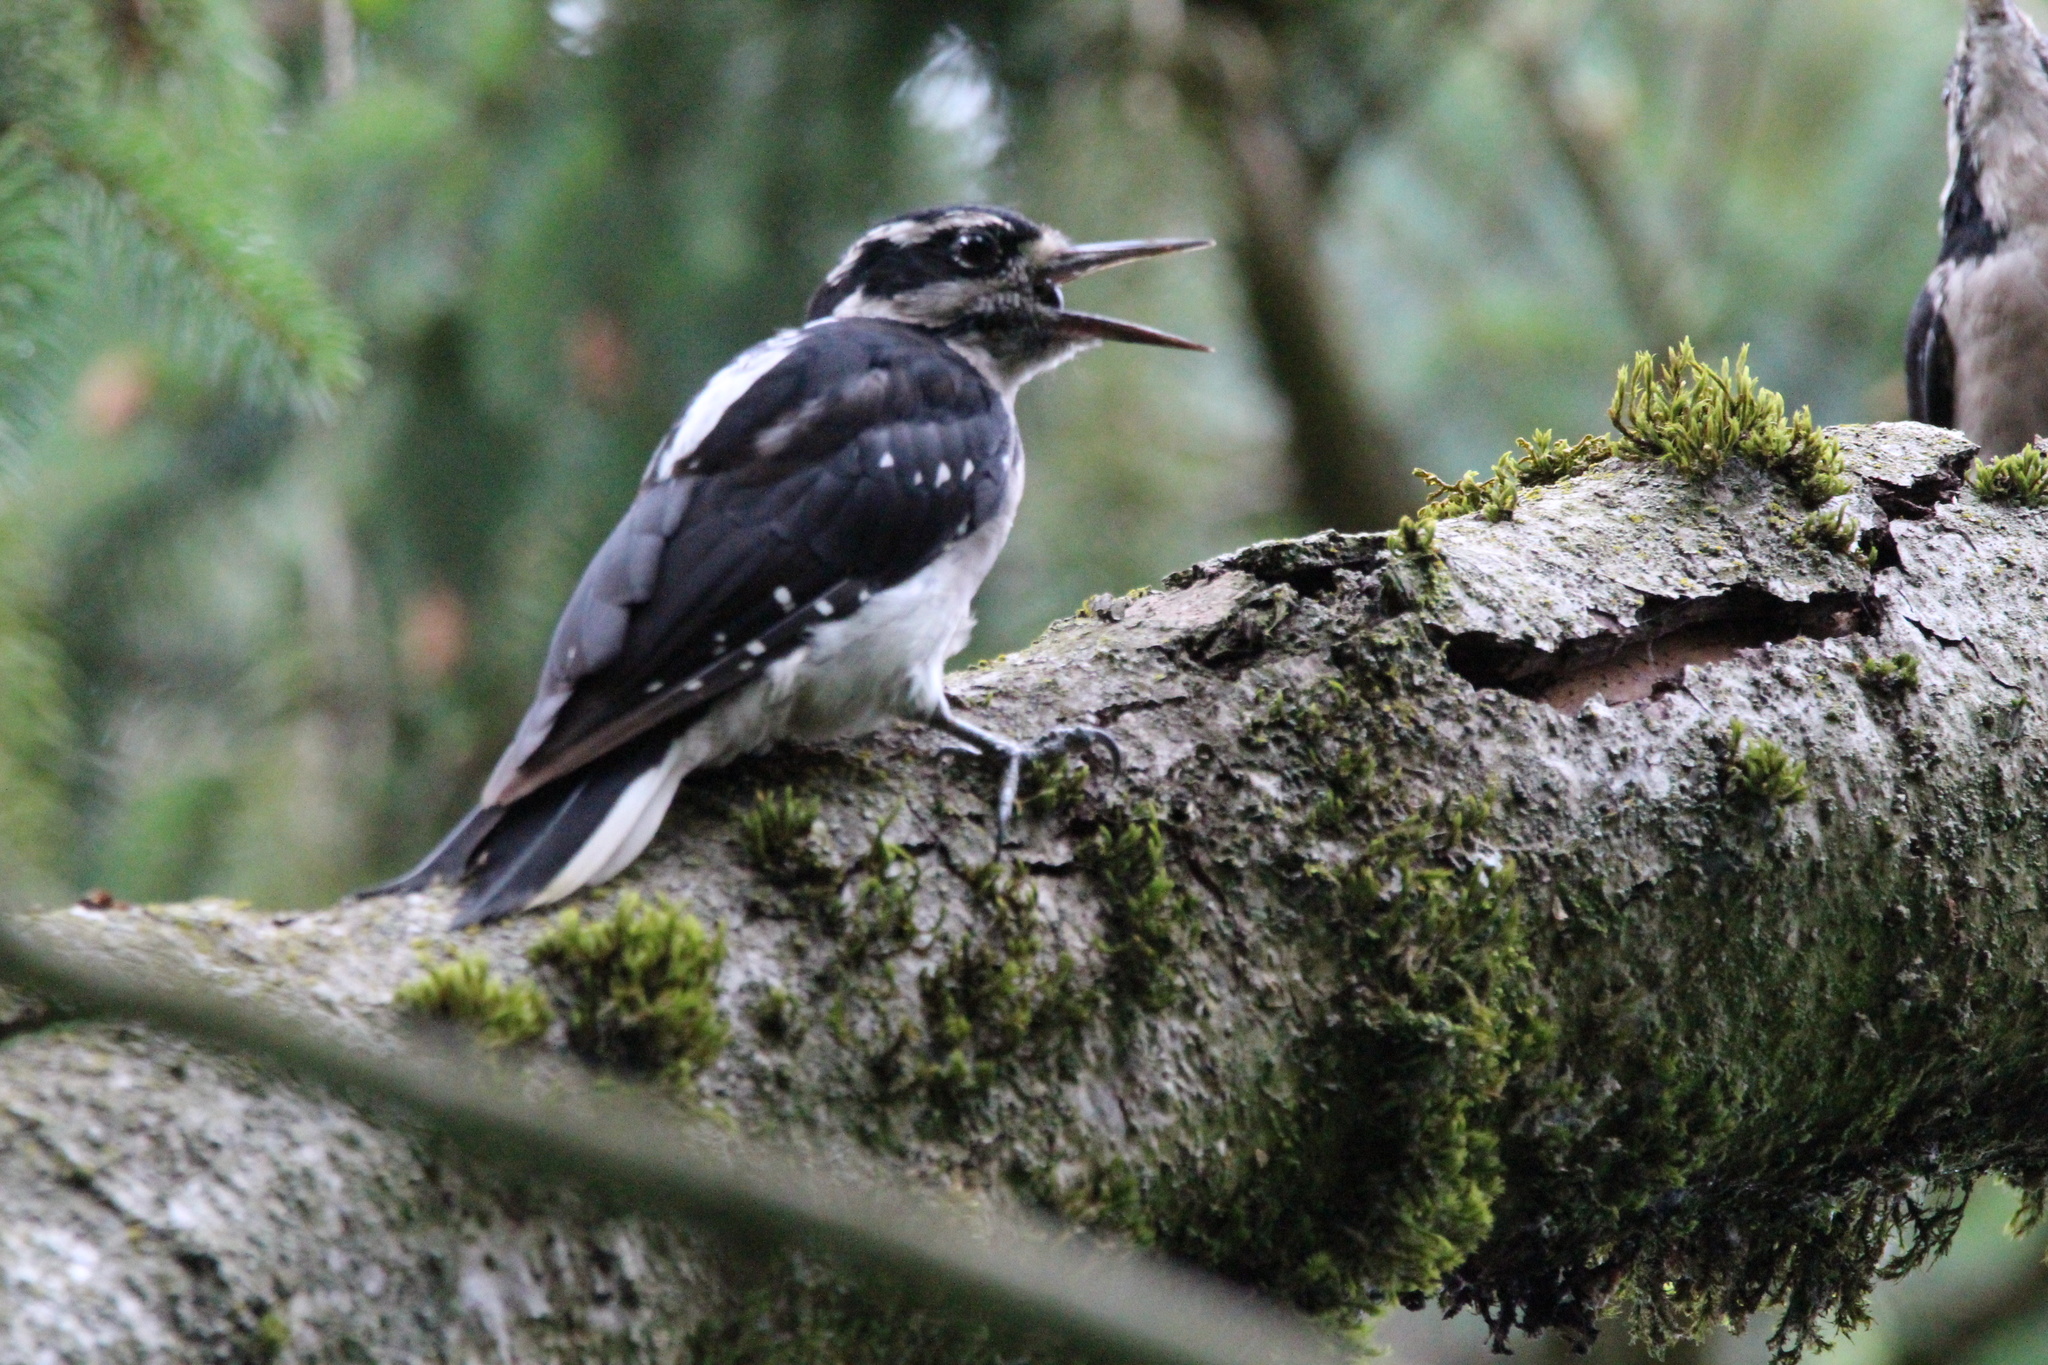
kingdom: Animalia
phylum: Chordata
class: Aves
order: Piciformes
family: Picidae
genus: Leuconotopicus
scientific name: Leuconotopicus villosus
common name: Hairy woodpecker
